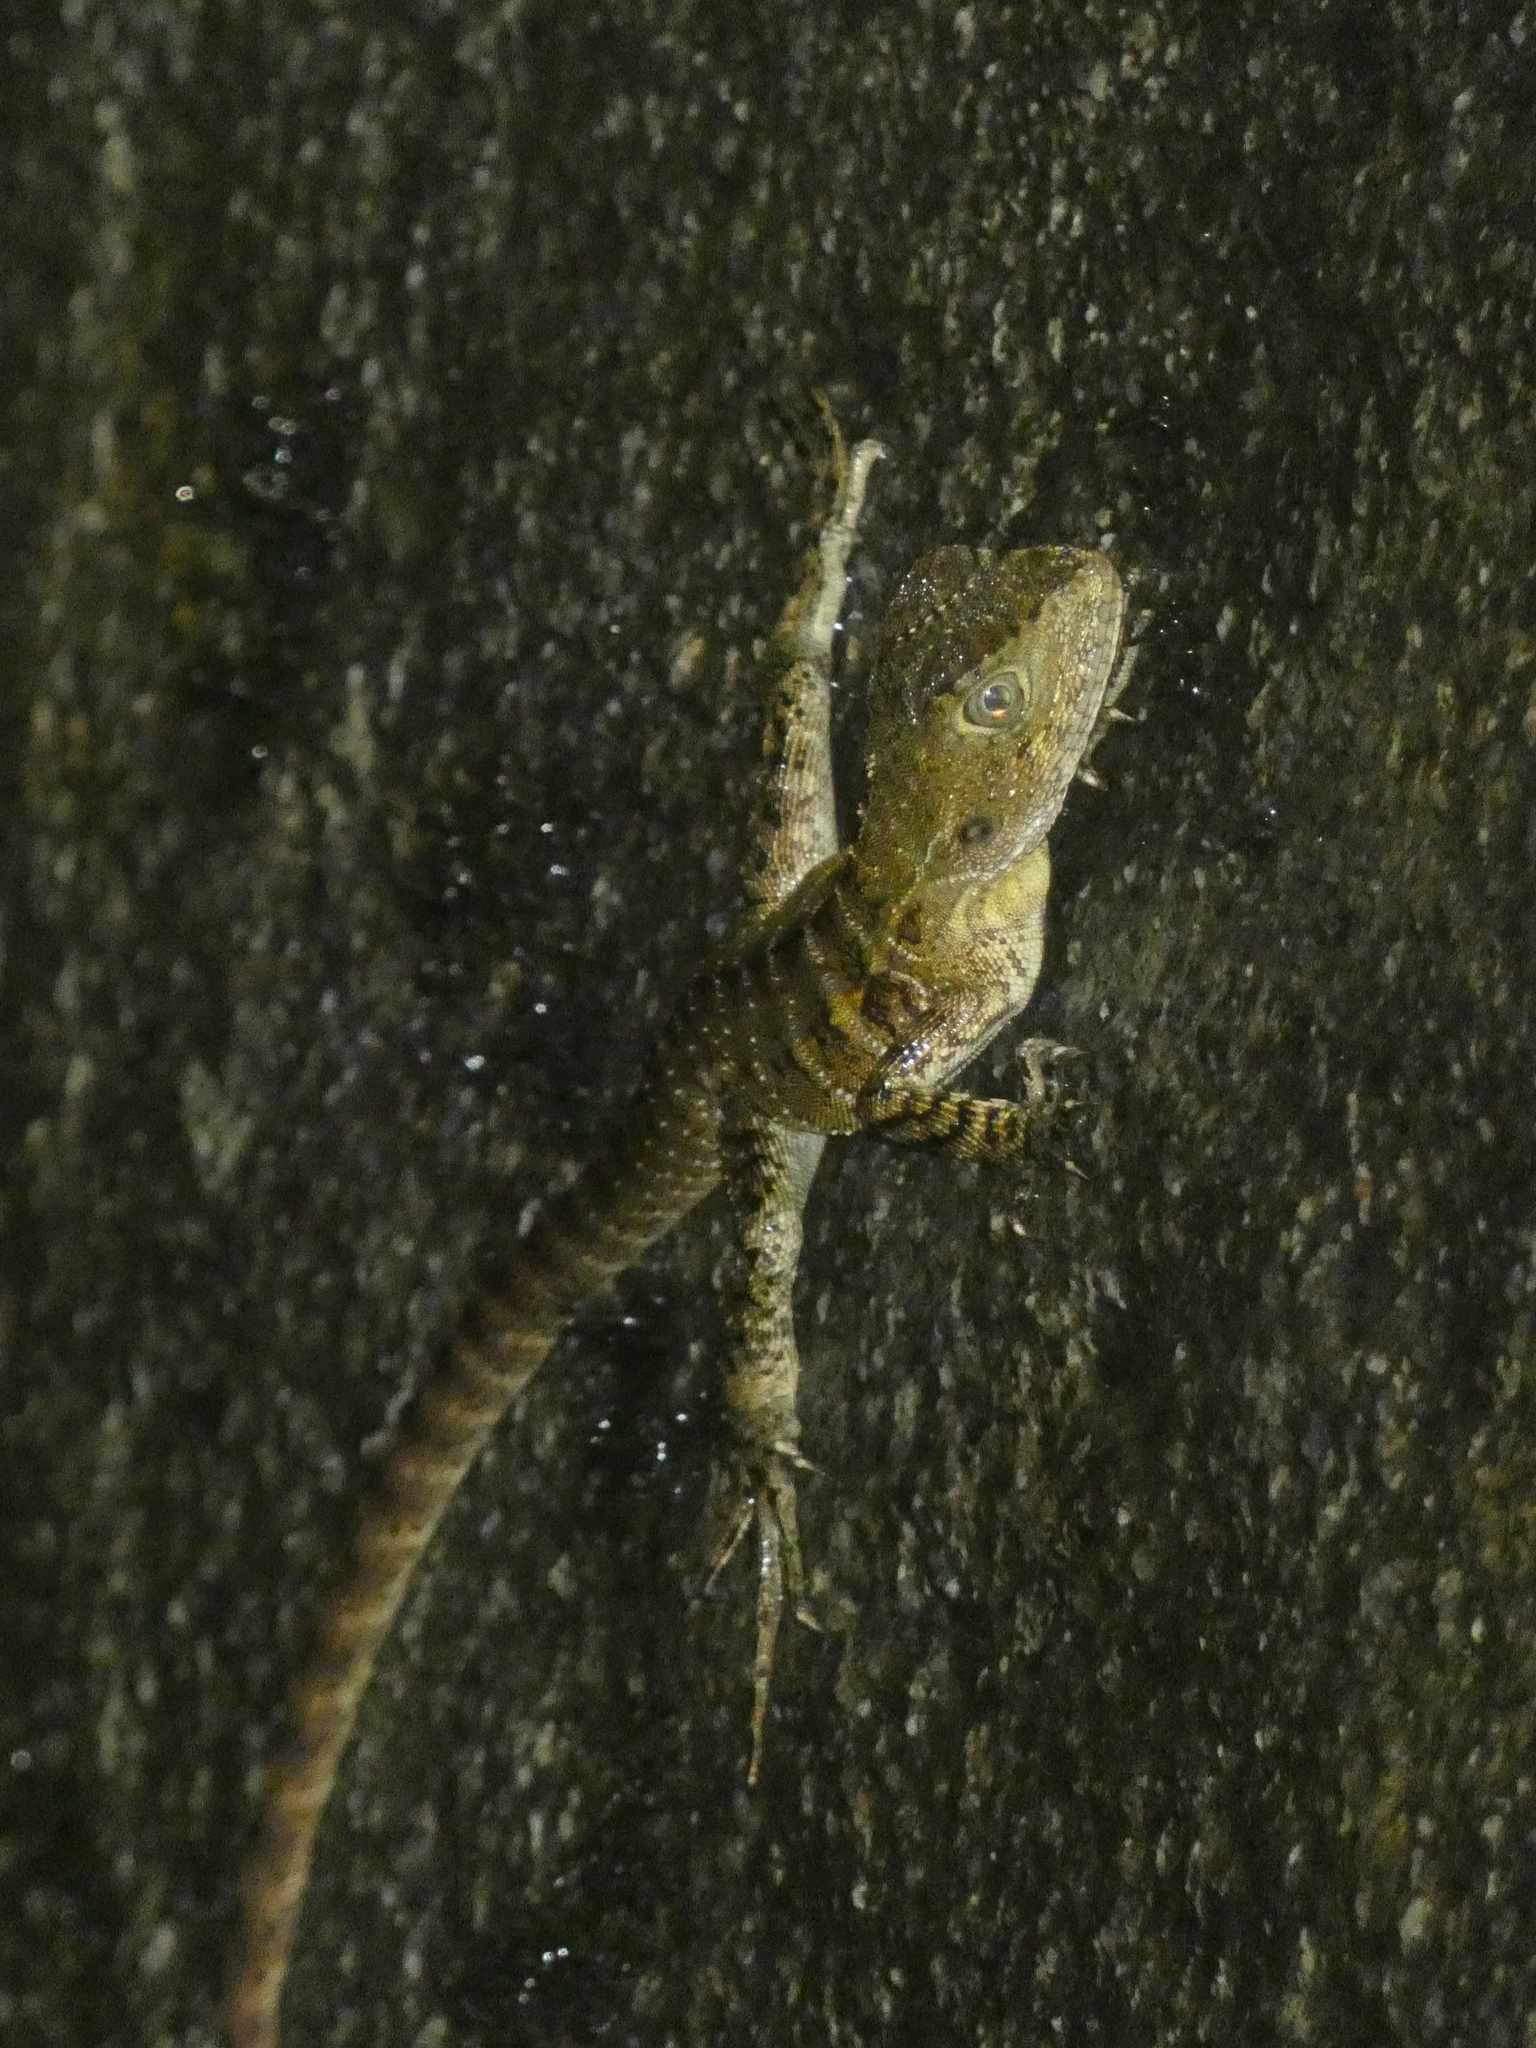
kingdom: Animalia
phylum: Chordata
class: Squamata
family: Agamidae
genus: Intellagama
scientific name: Intellagama lesueurii
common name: Eastern water dragon
